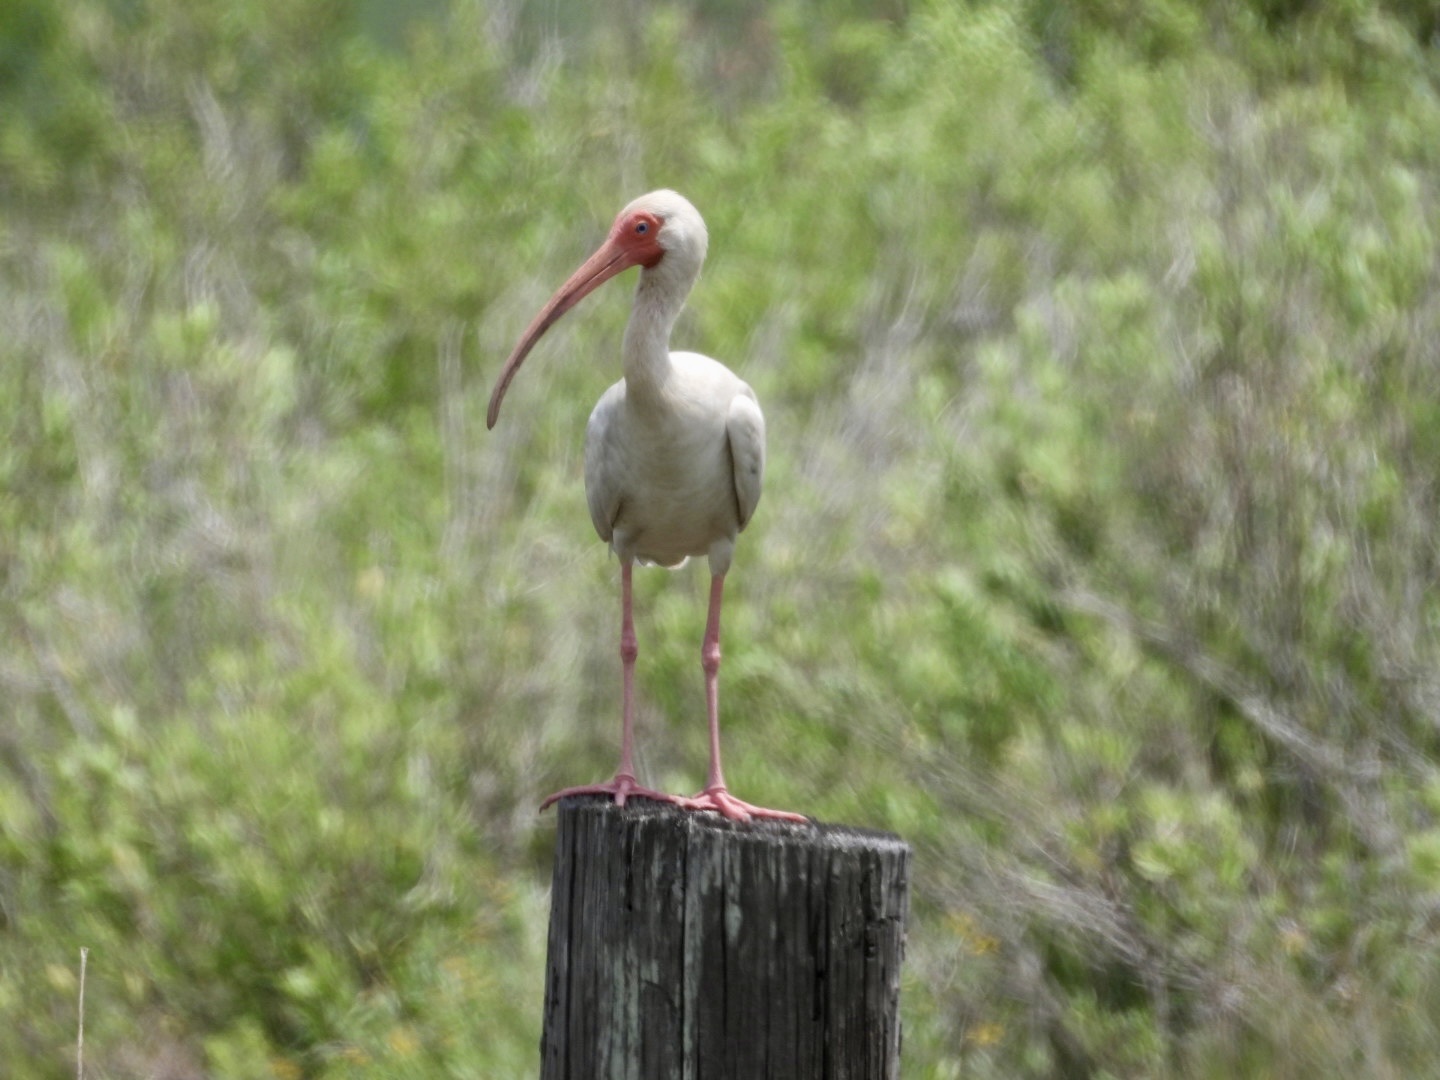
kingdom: Animalia
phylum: Chordata
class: Aves
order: Pelecaniformes
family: Threskiornithidae
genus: Eudocimus
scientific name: Eudocimus albus
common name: White ibis
